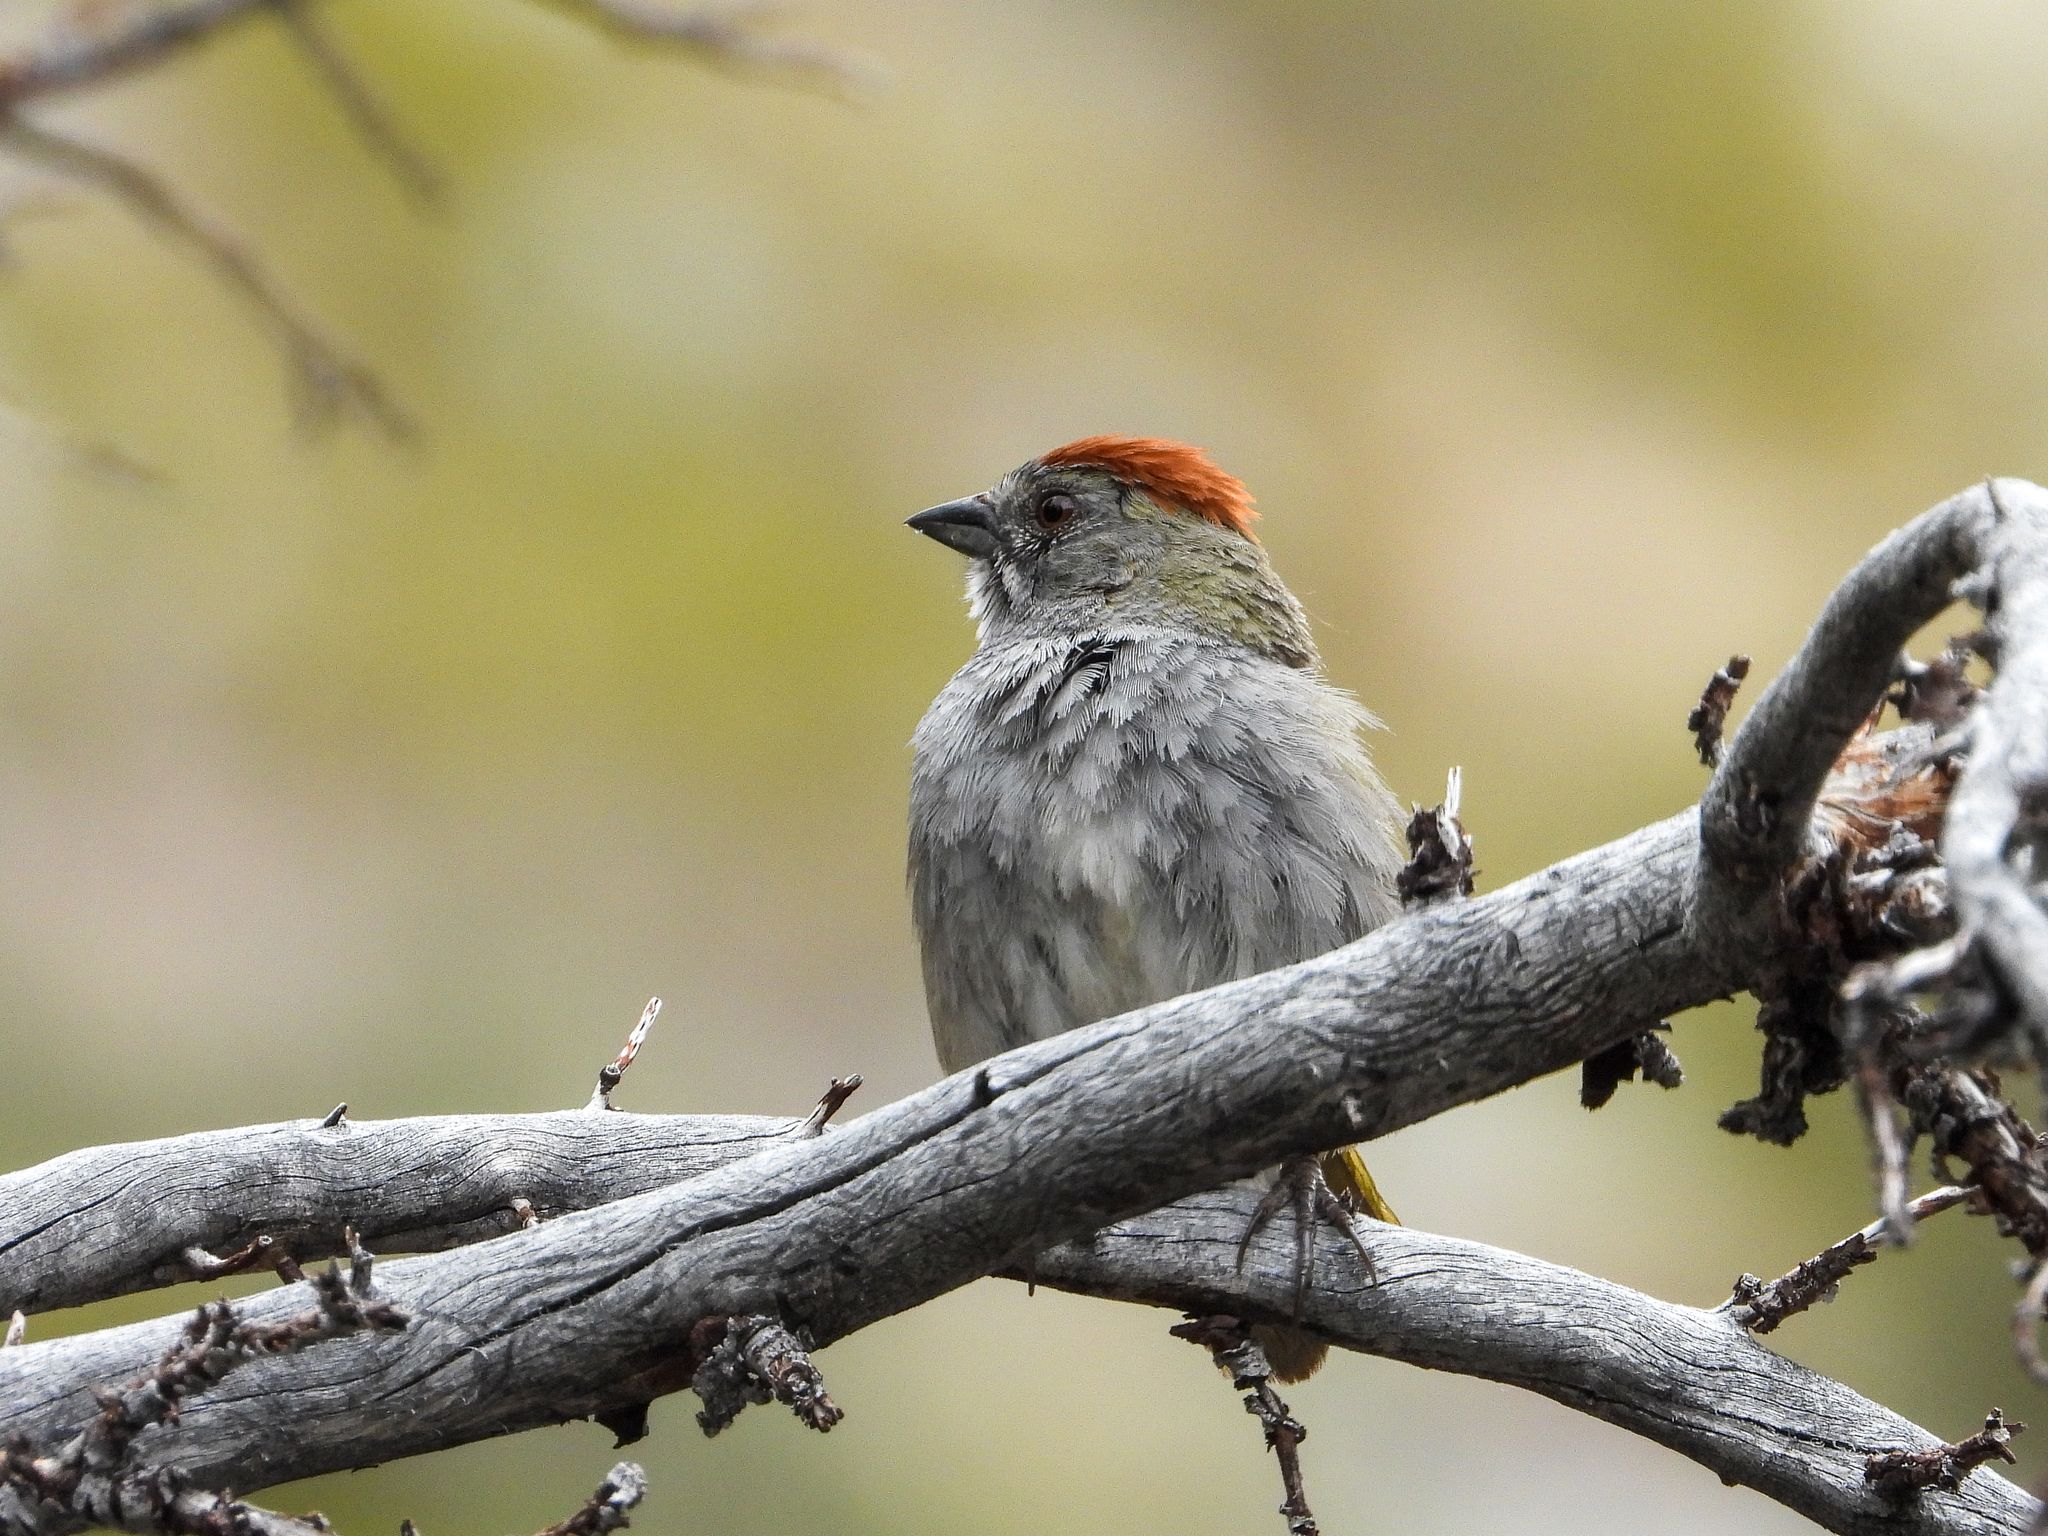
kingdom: Animalia
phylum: Chordata
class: Aves
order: Passeriformes
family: Passerellidae
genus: Pipilo
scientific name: Pipilo chlorurus
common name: Green-tailed towhee
